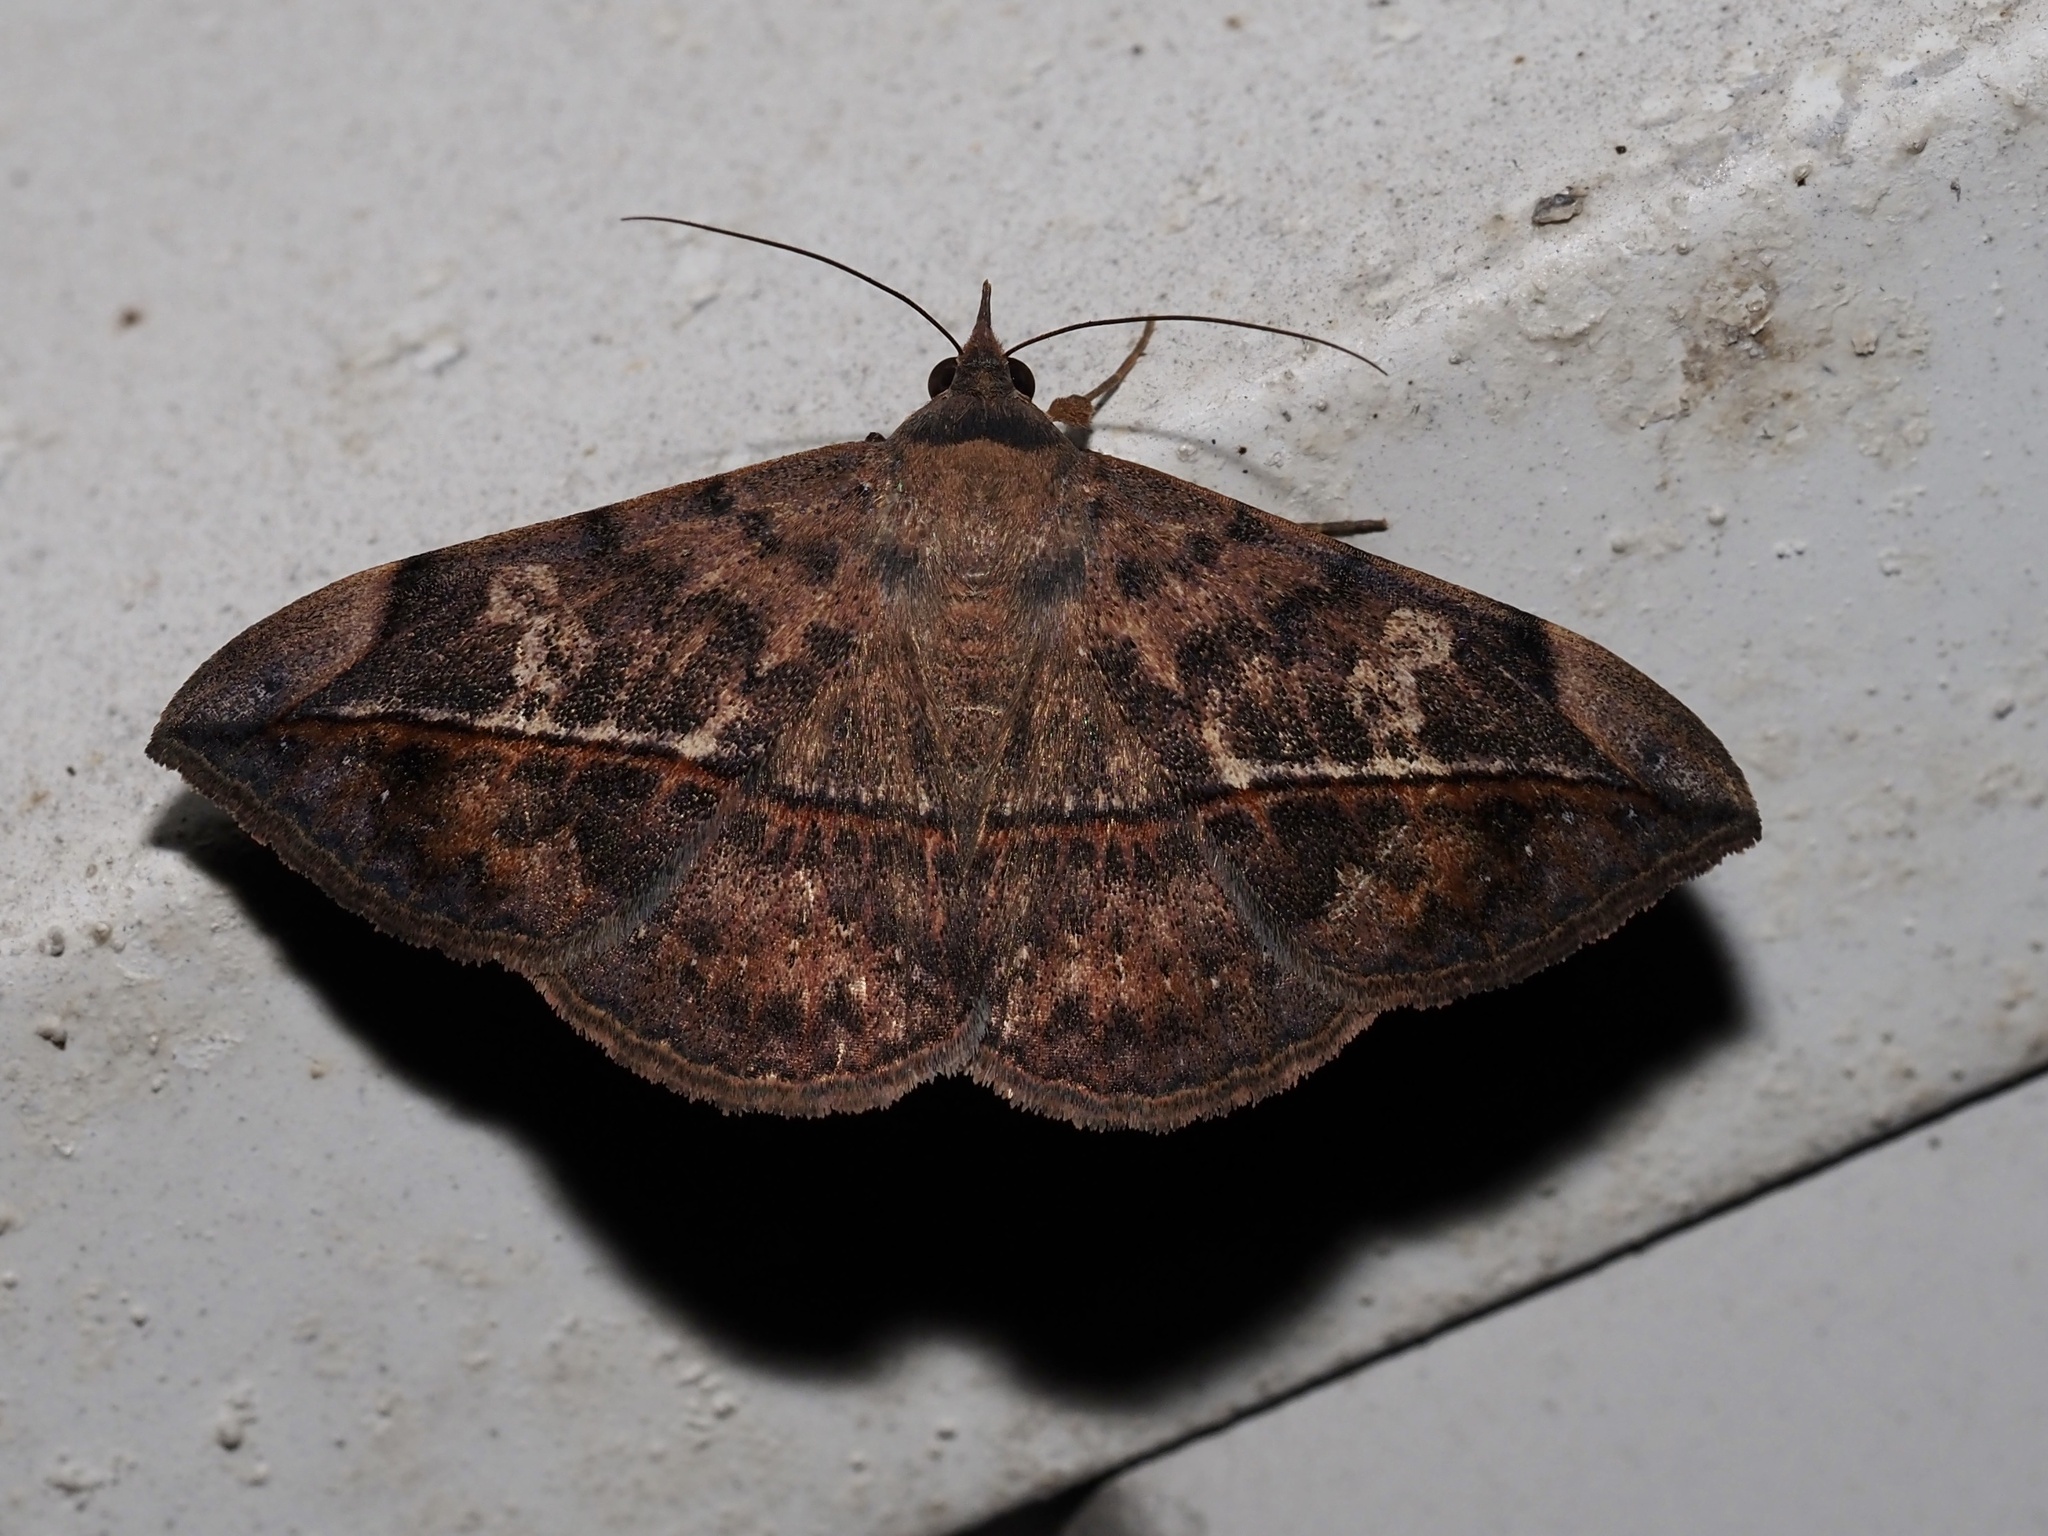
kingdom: Animalia
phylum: Arthropoda
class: Insecta
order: Lepidoptera
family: Erebidae
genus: Anticarsia
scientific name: Anticarsia gemmatalis
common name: Cutworm moth
